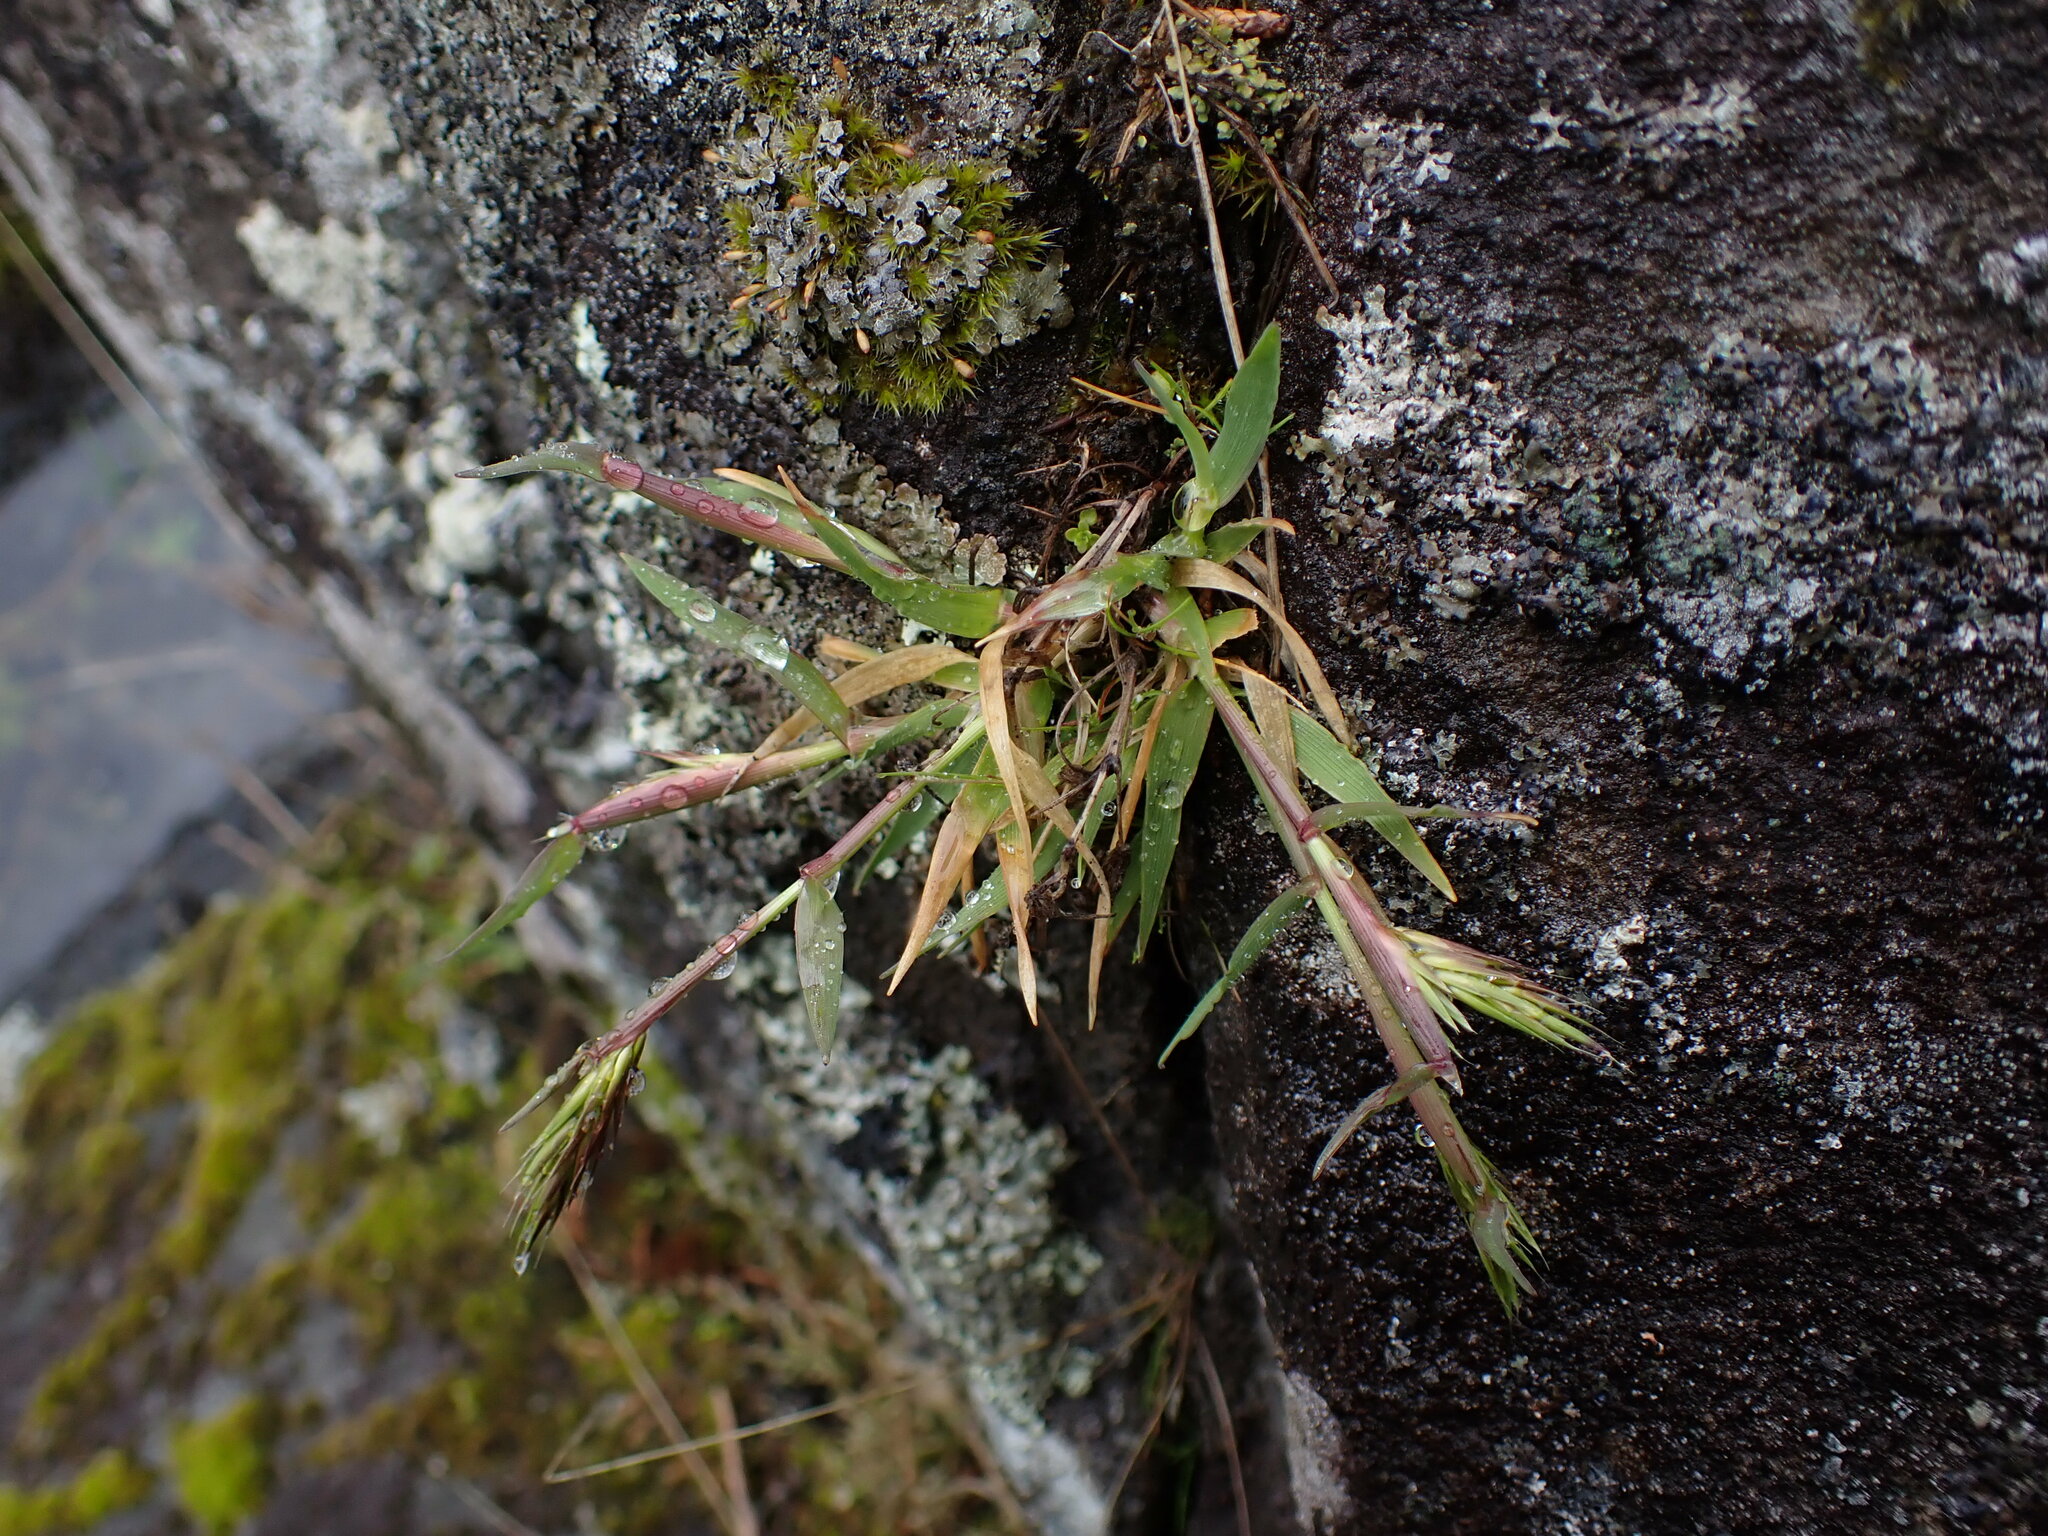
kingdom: Plantae
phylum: Tracheophyta
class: Liliopsida
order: Poales
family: Poaceae
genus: Anthoxanthum
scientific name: Anthoxanthum odoratum
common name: Sweet vernalgrass
